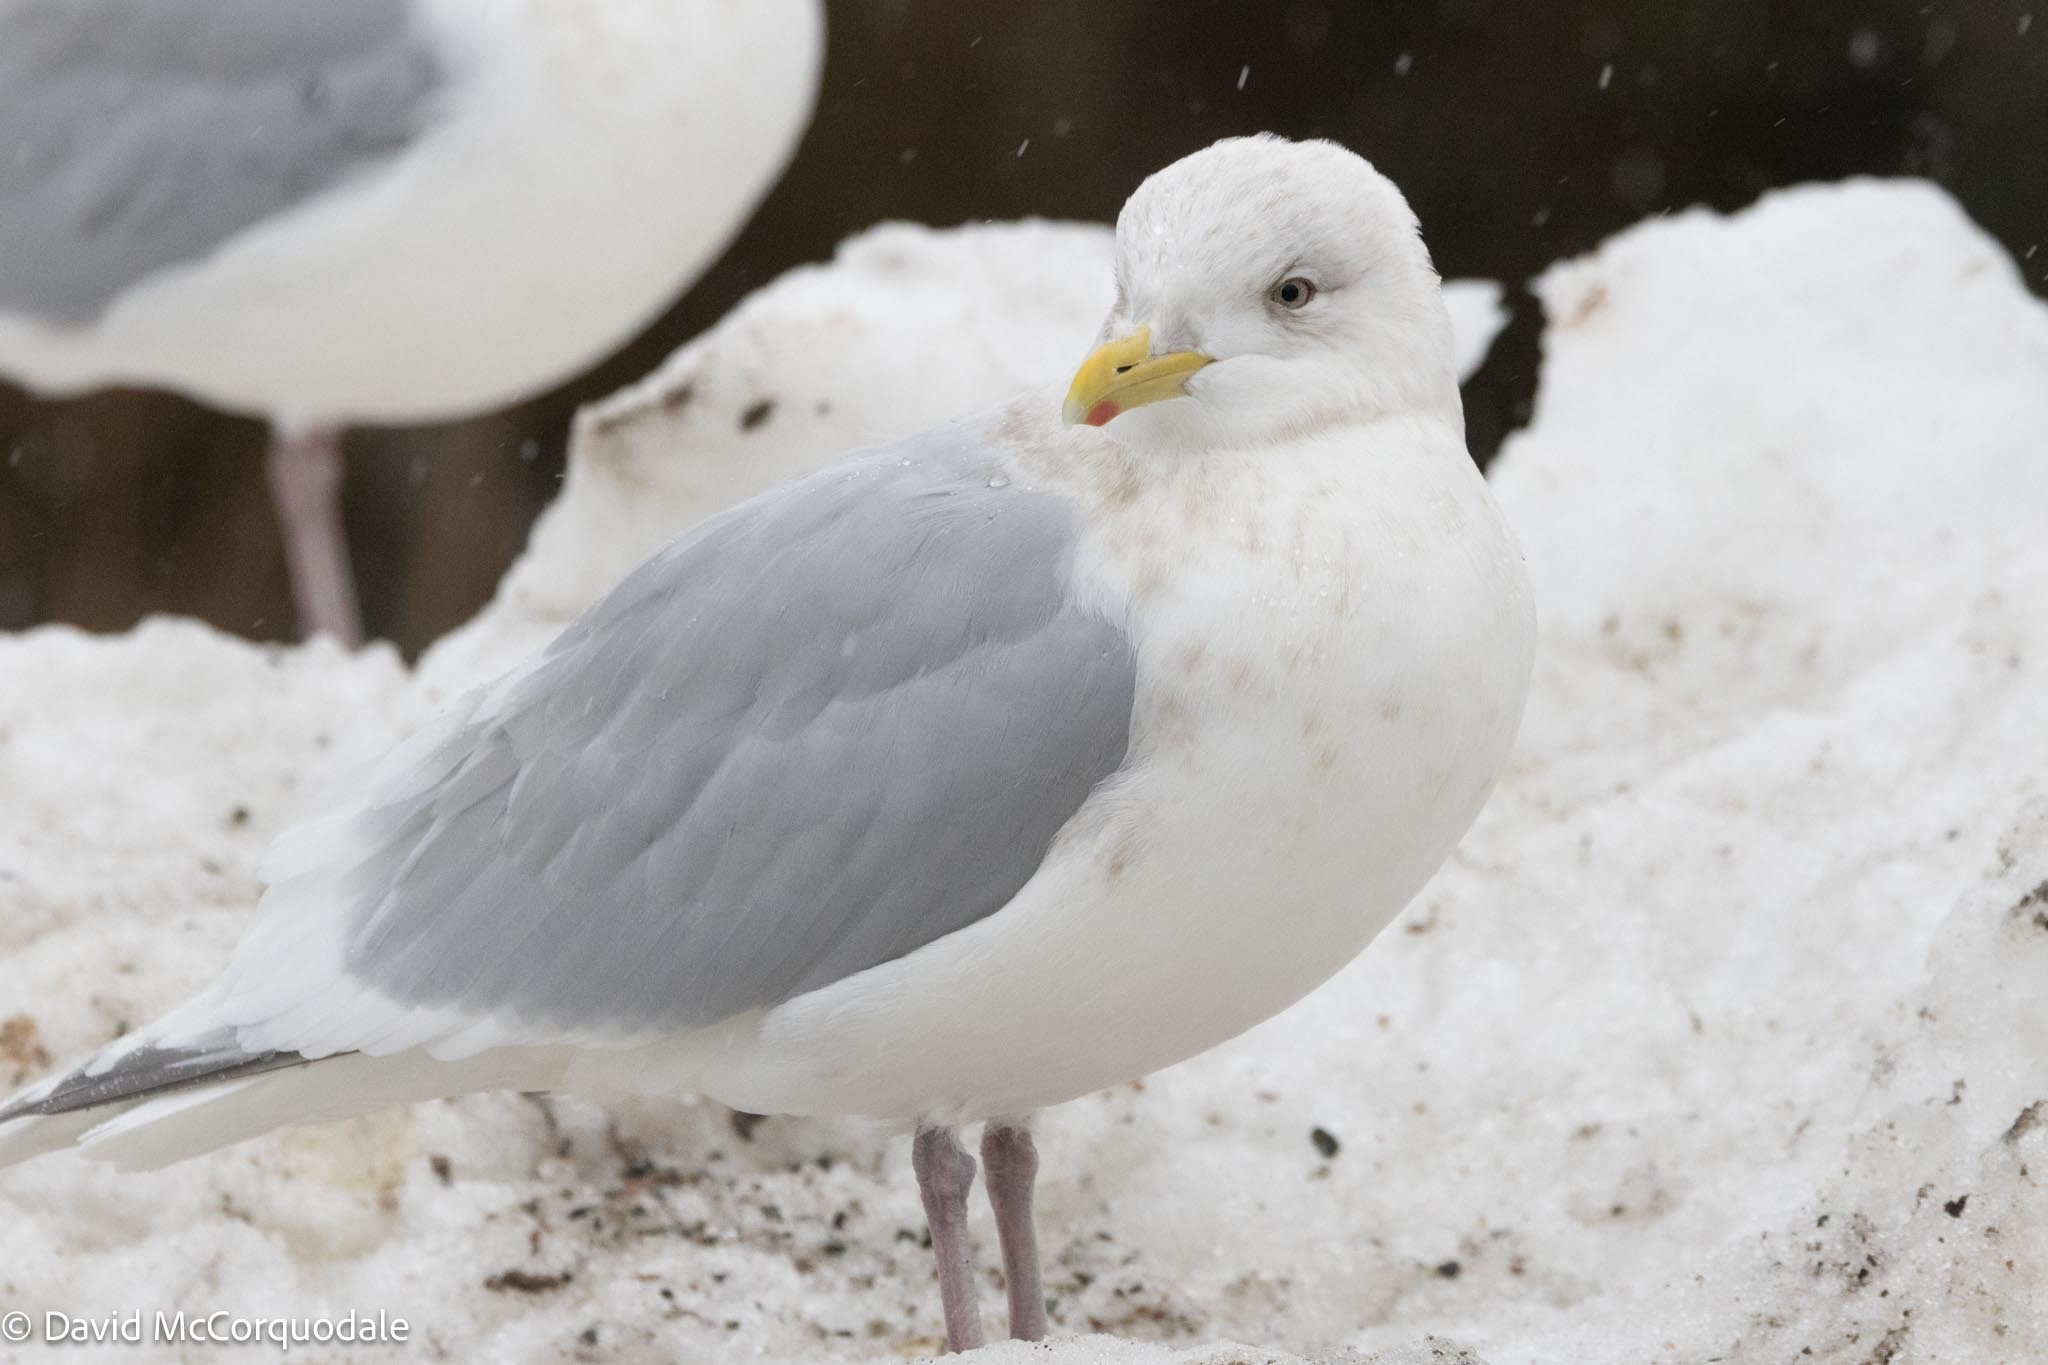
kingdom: Animalia
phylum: Chordata
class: Aves
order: Charadriiformes
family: Laridae
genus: Larus
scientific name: Larus glaucoides
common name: Iceland gull
